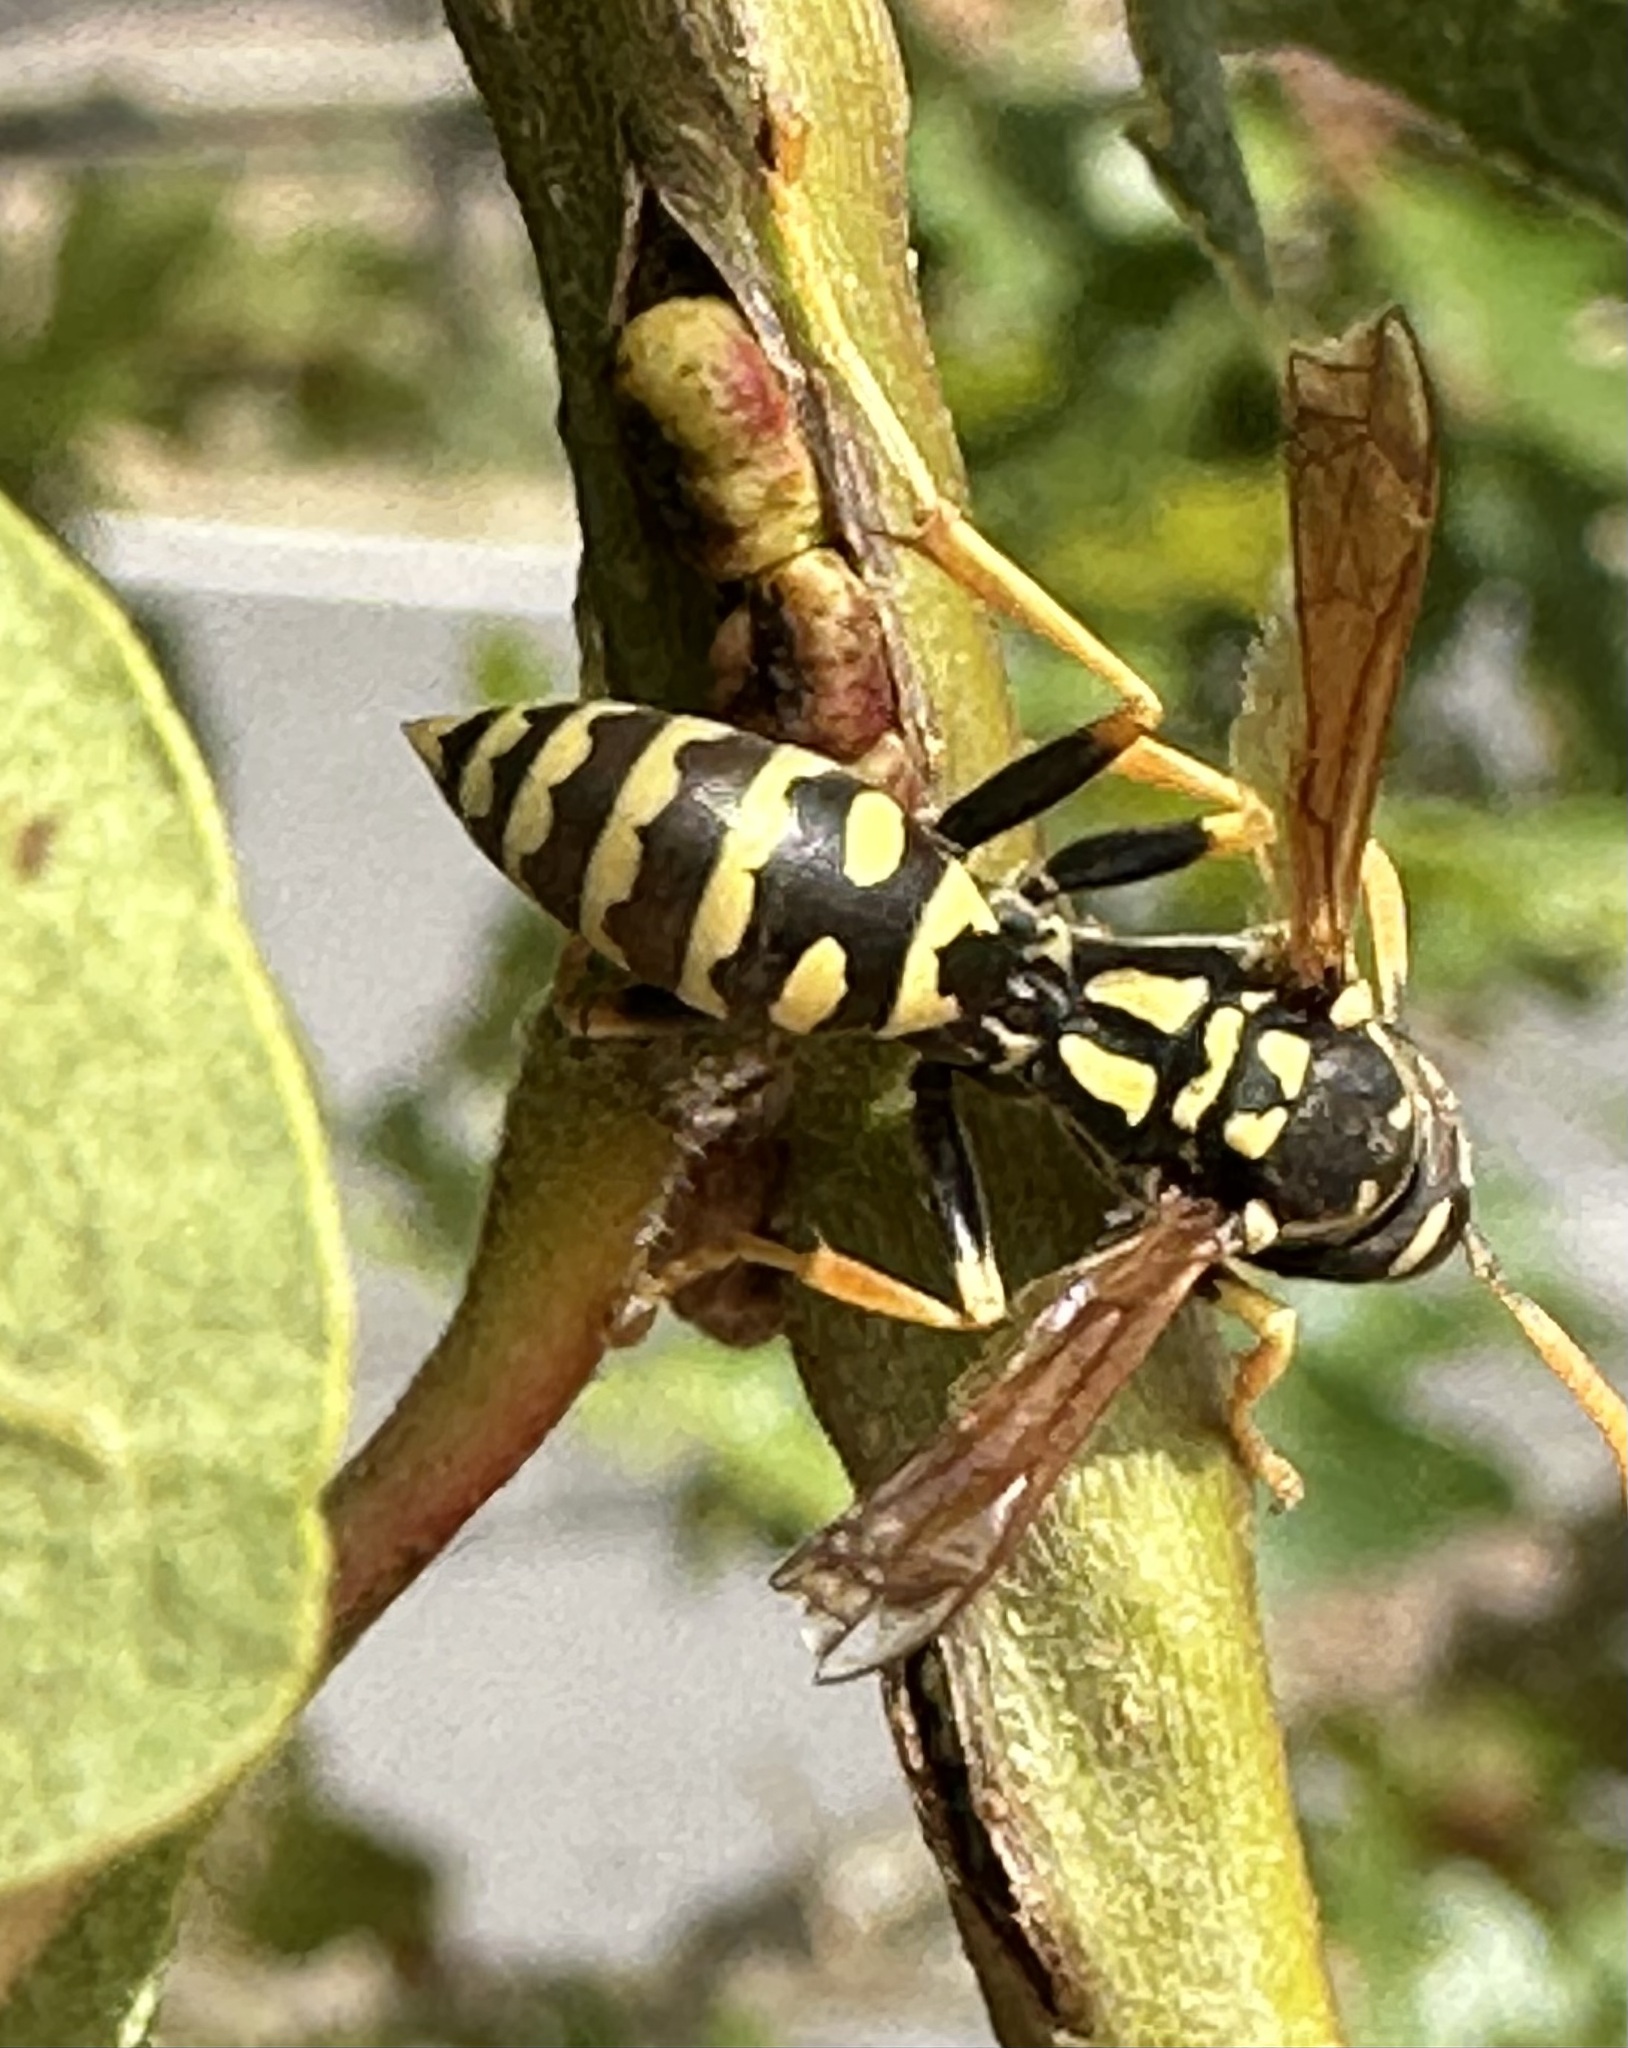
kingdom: Animalia
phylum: Arthropoda
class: Insecta
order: Hymenoptera
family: Eumenidae
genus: Polistes
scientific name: Polistes dominula
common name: Paper wasp
